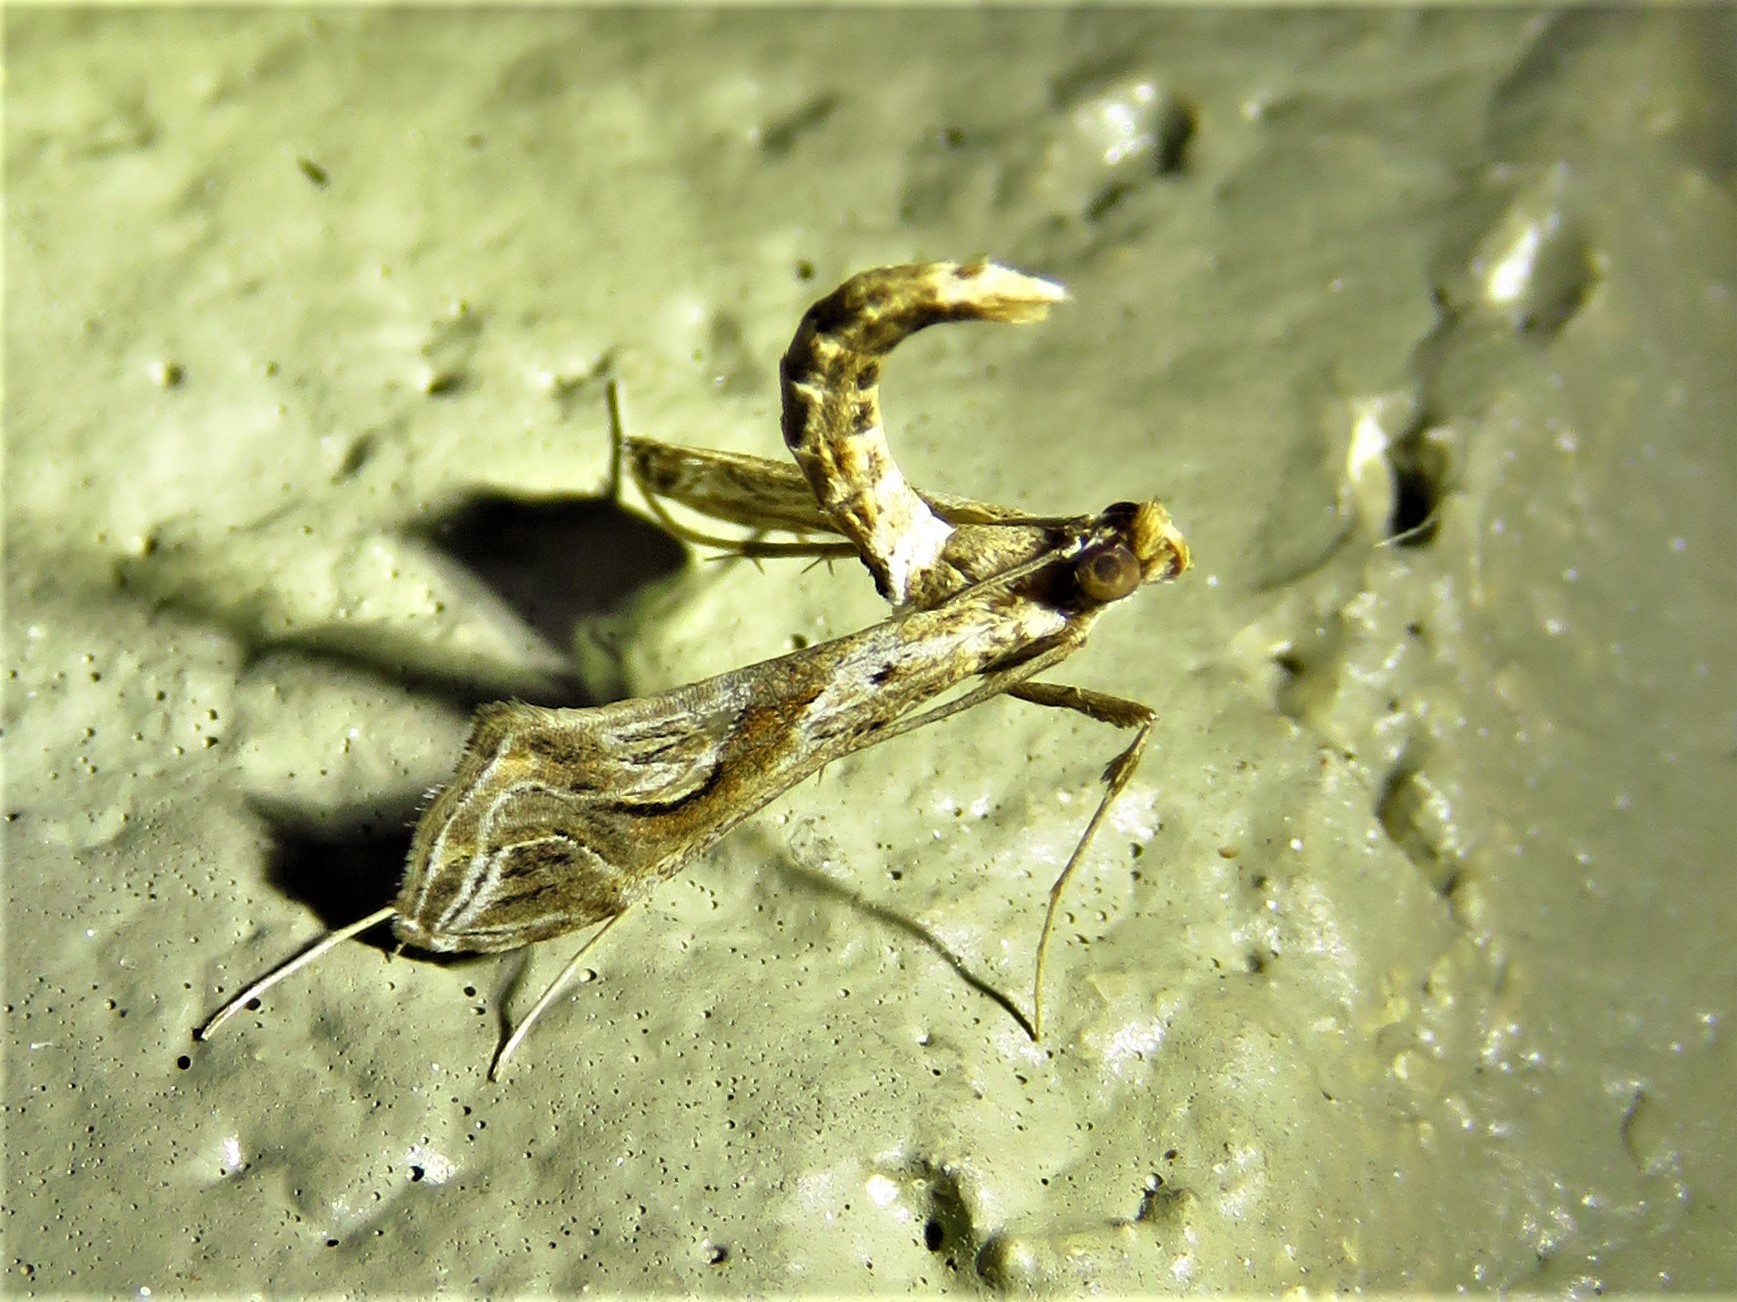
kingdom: Animalia
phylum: Arthropoda
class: Insecta
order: Lepidoptera
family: Crambidae
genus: Lineodes
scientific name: Lineodes integra
